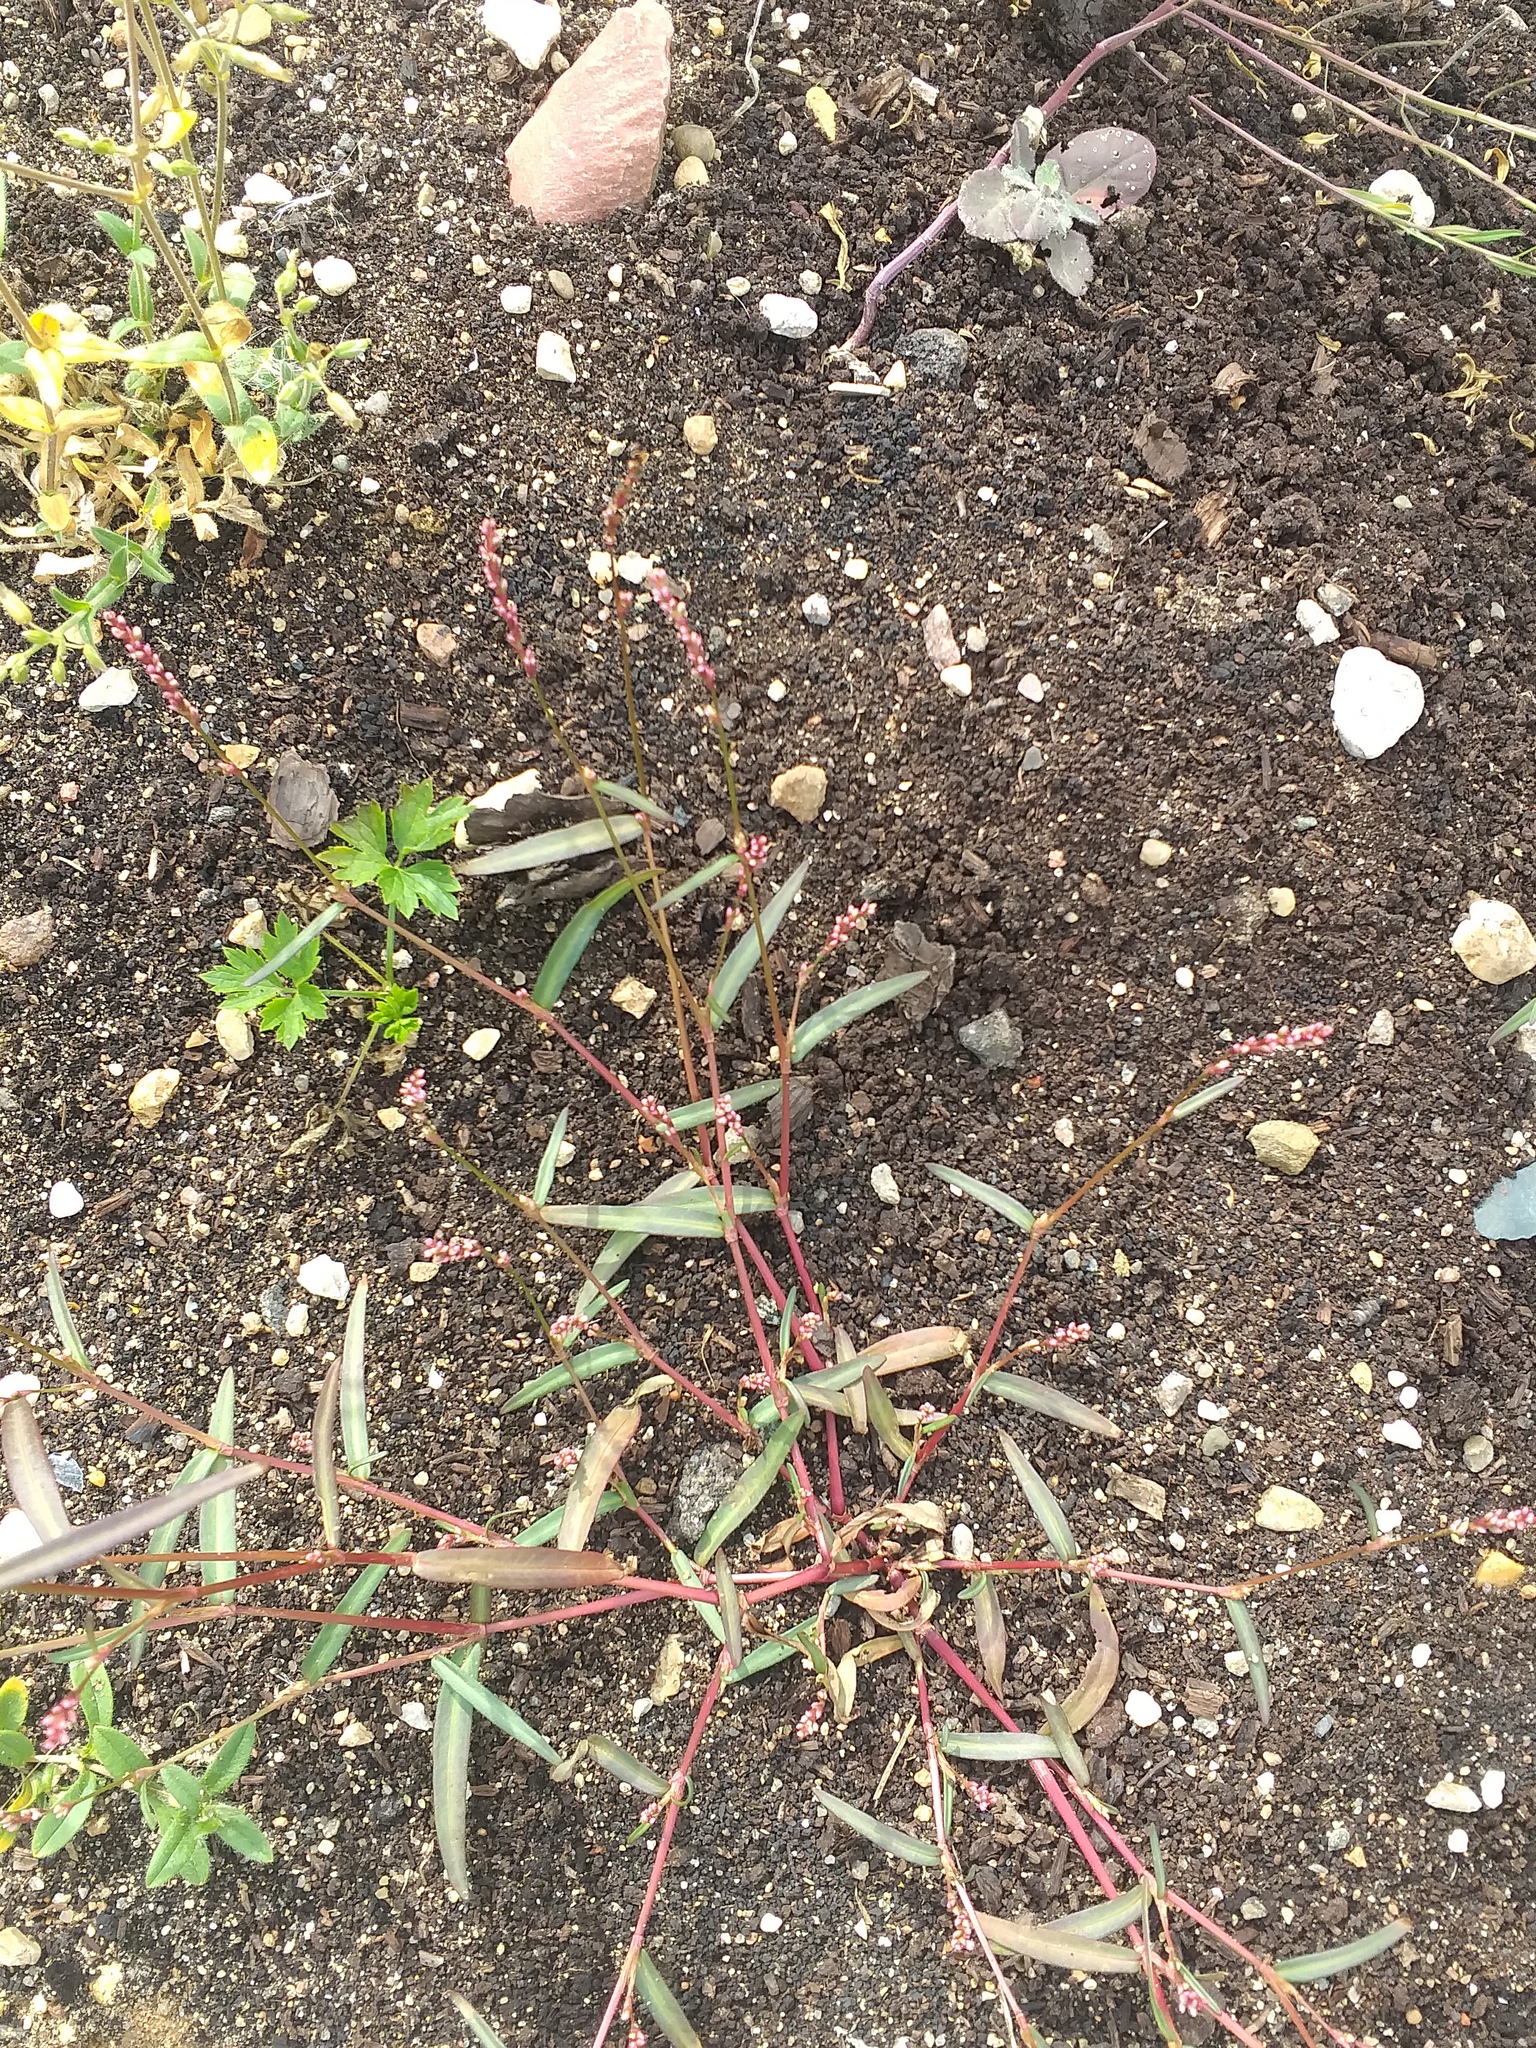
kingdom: Plantae
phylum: Tracheophyta
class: Magnoliopsida
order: Caryophyllales
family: Polygonaceae
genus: Persicaria
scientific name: Persicaria minor
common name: Small water-pepper
